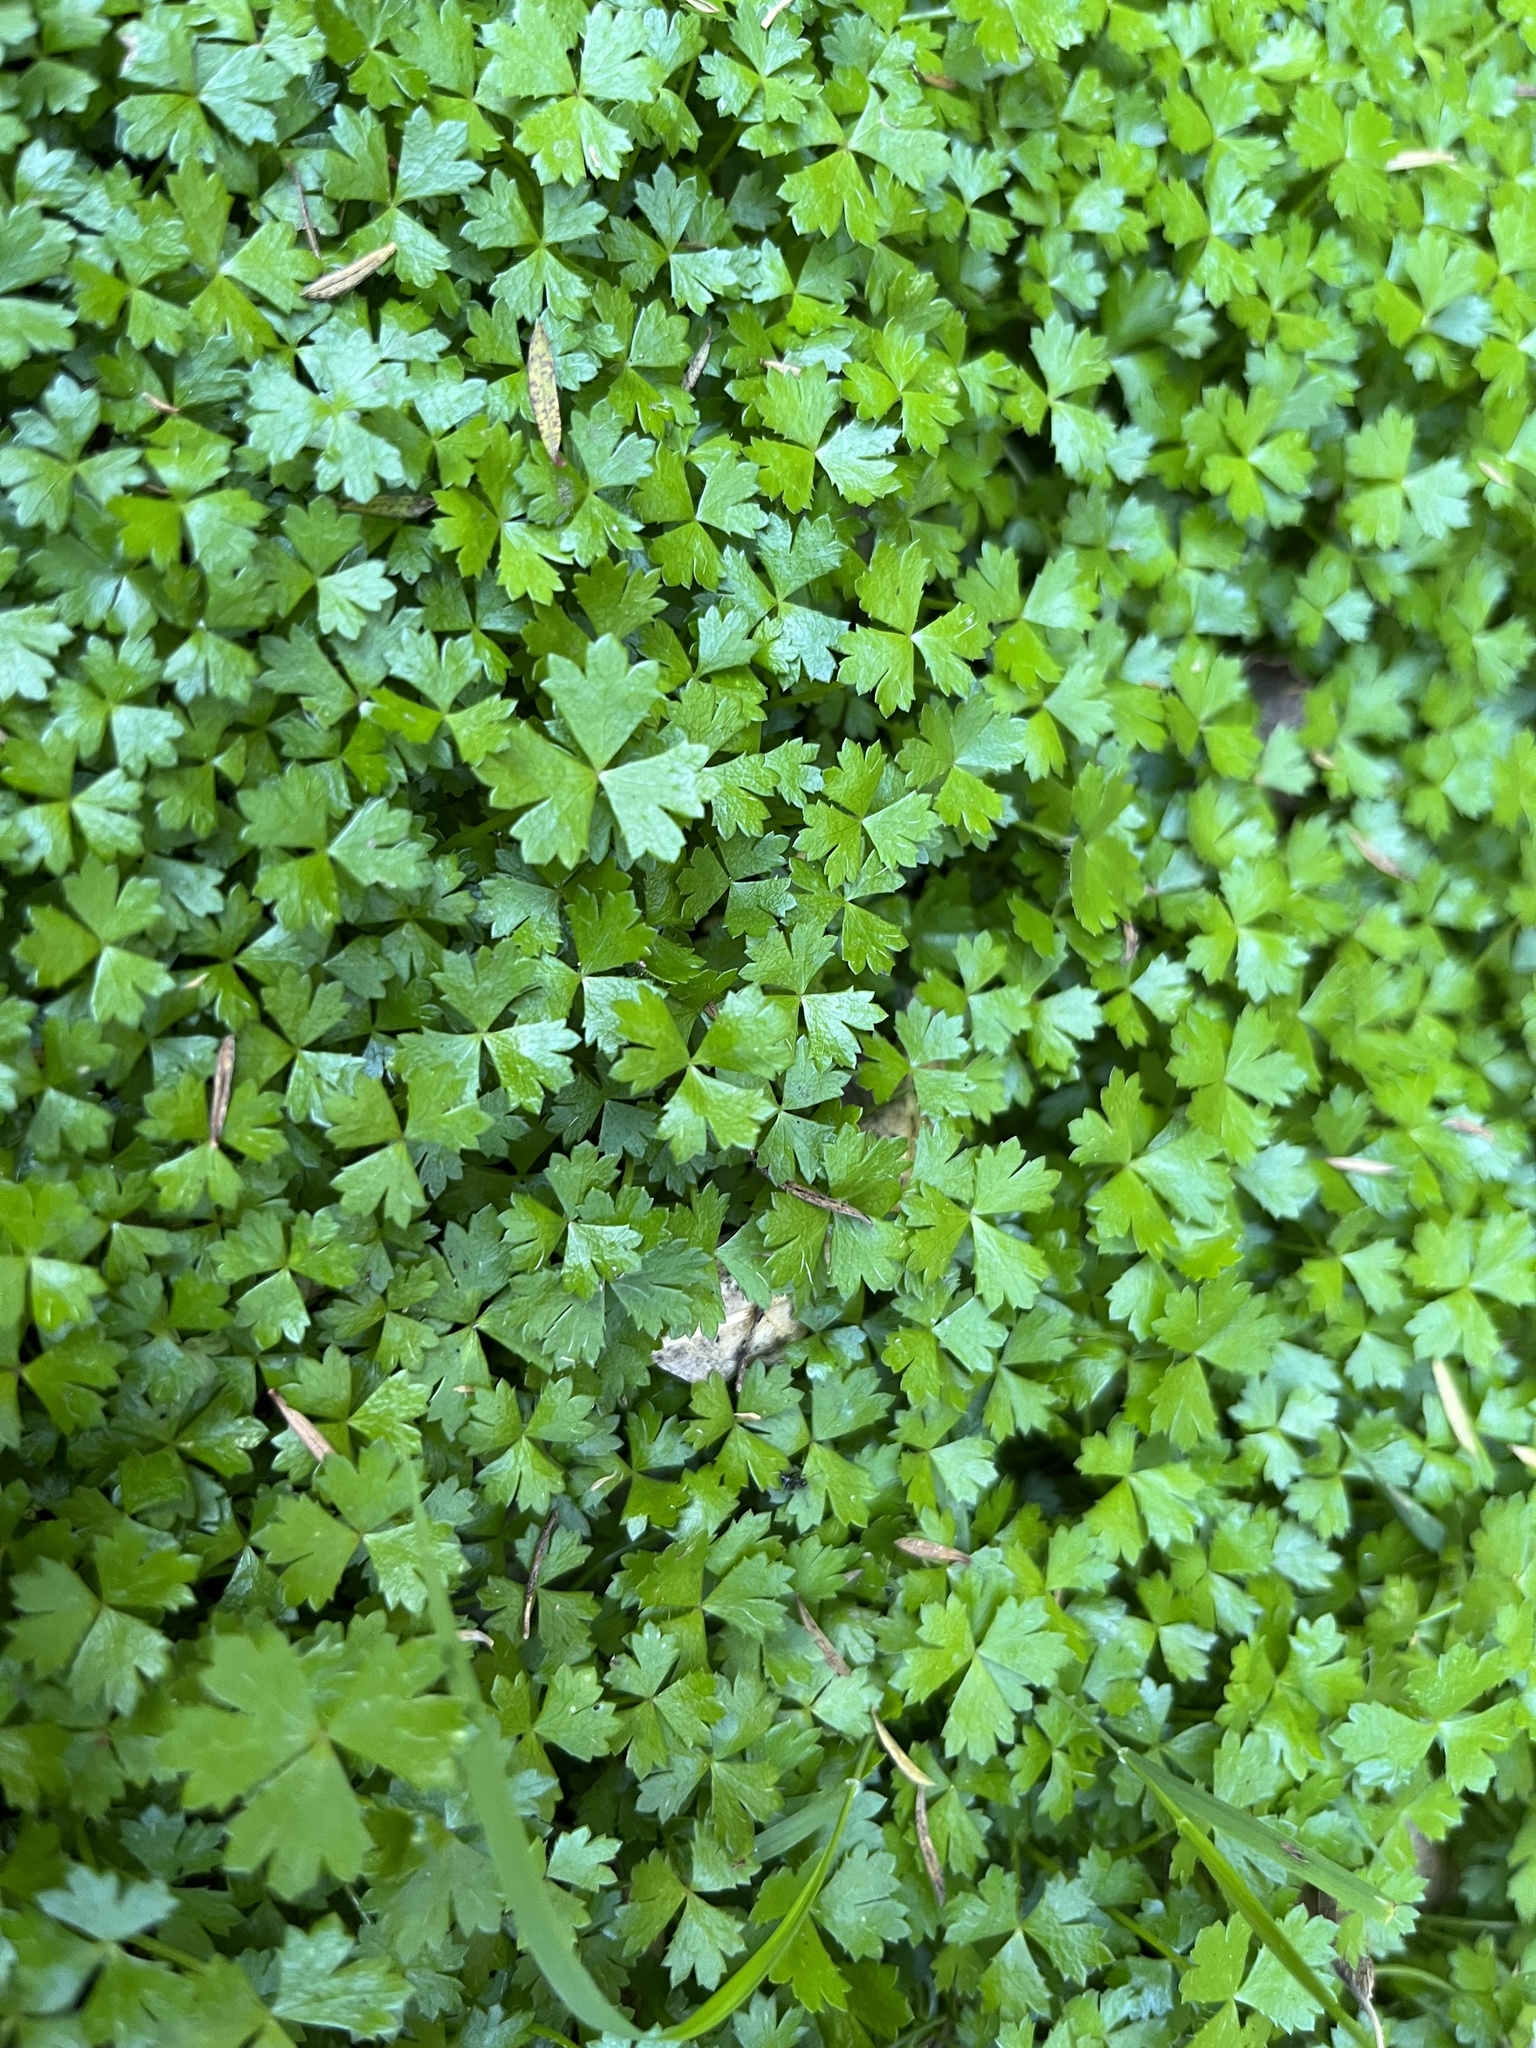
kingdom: Plantae
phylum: Tracheophyta
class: Magnoliopsida
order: Apiales
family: Araliaceae
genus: Hydrocotyle
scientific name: Hydrocotyle tripartita
